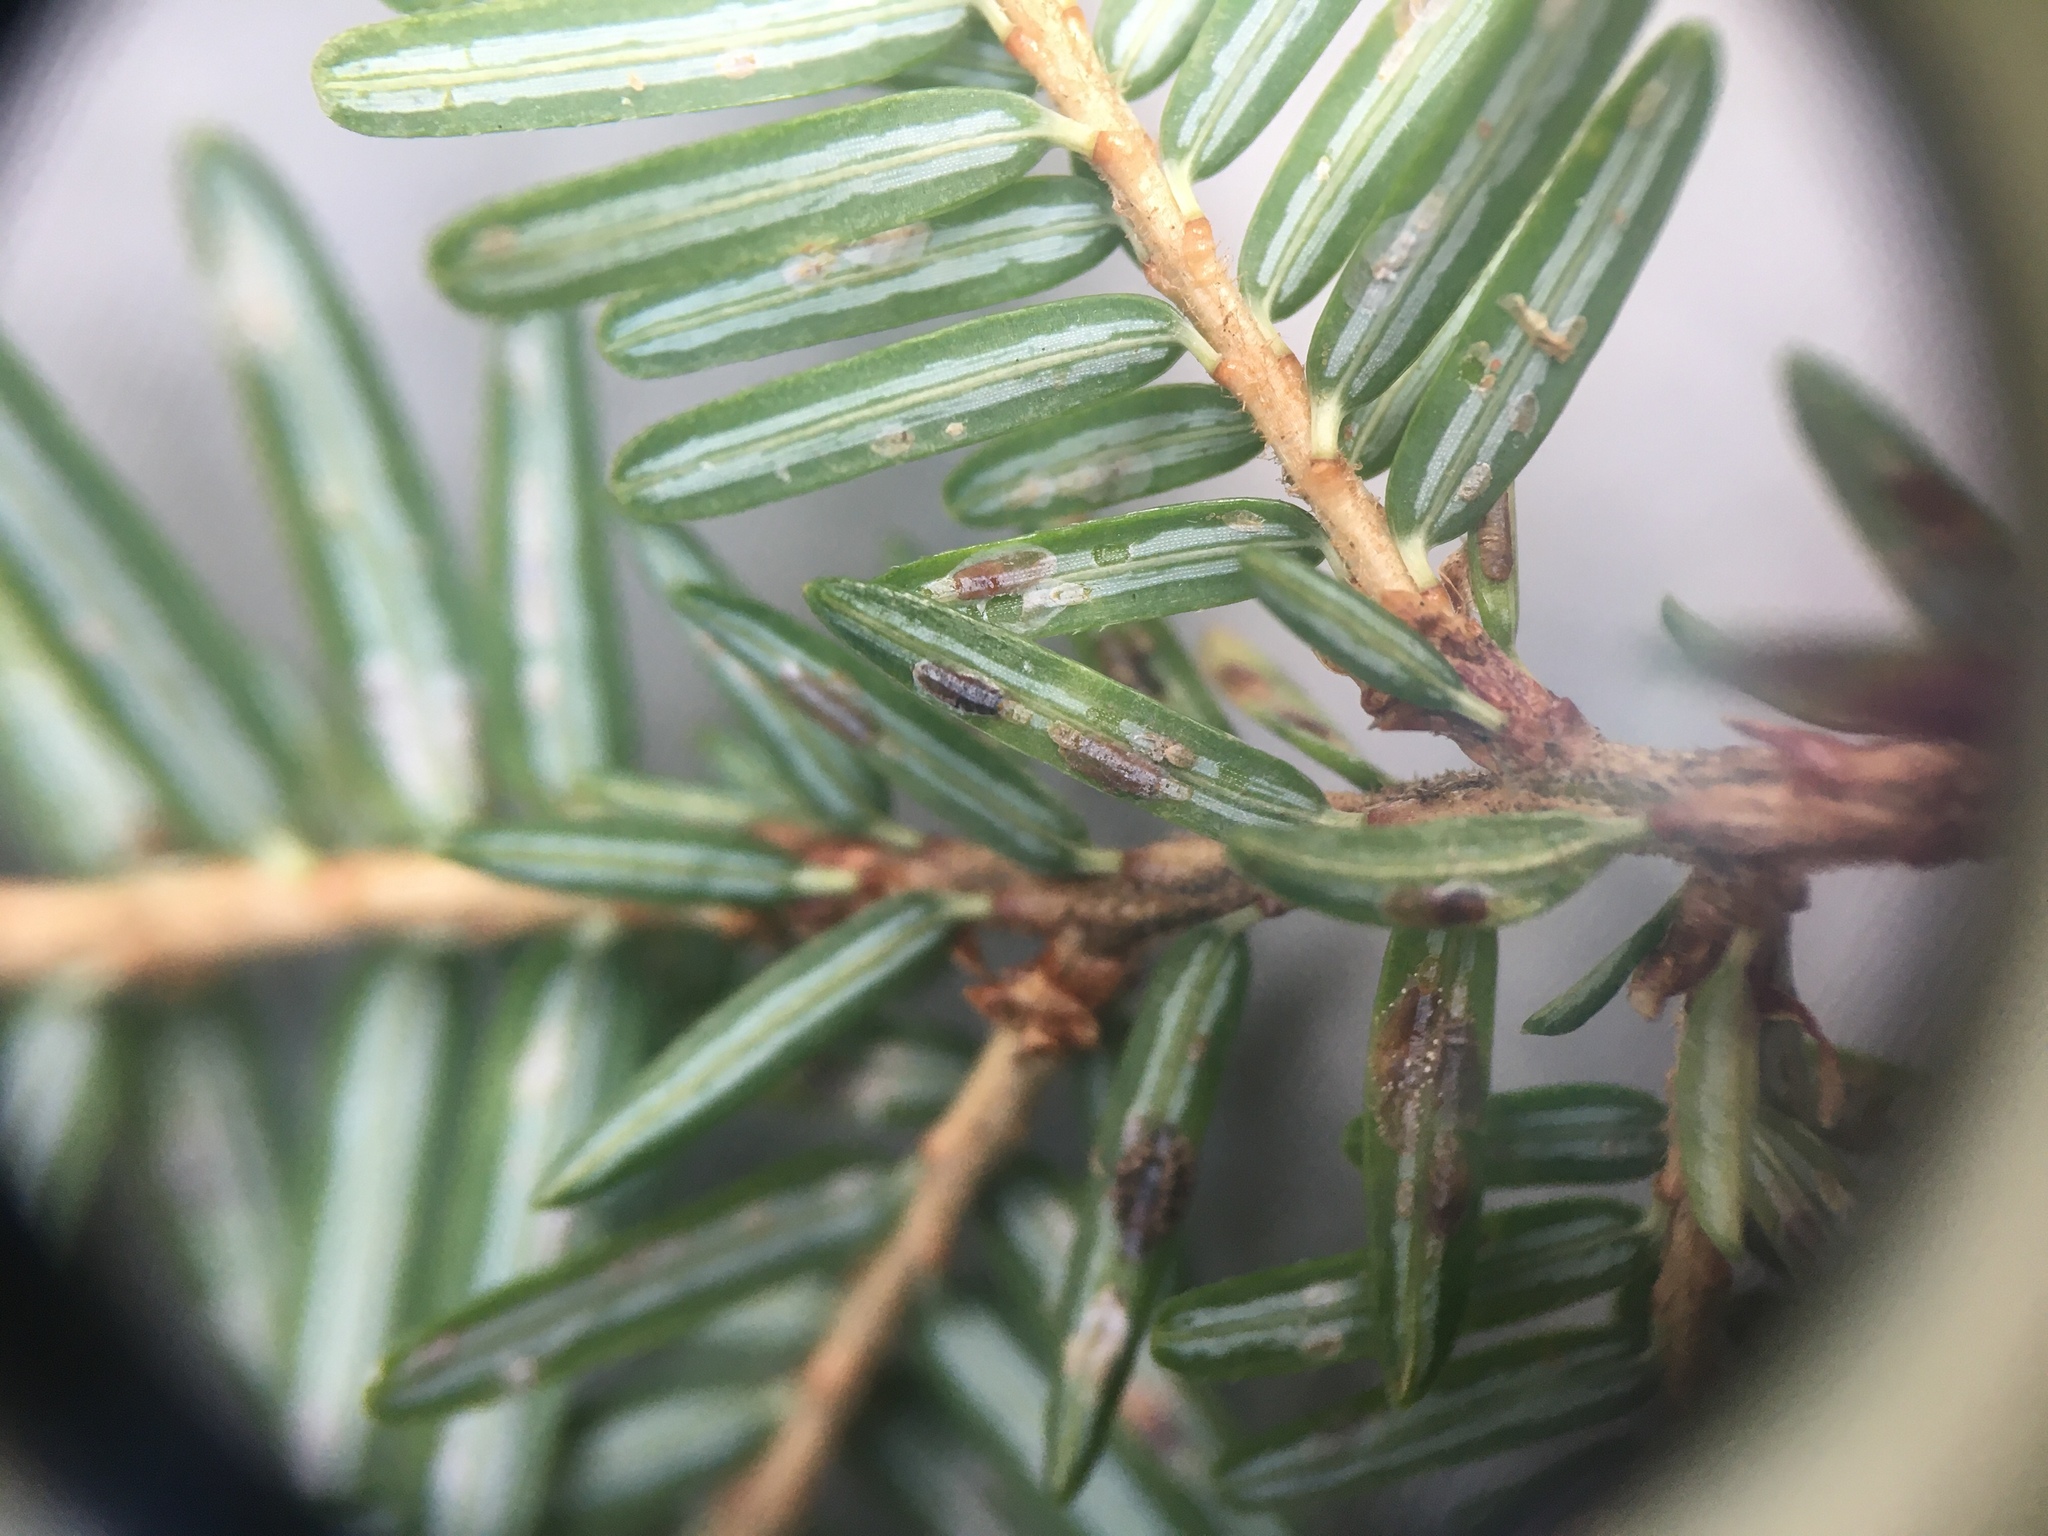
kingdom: Animalia
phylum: Arthropoda
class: Insecta
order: Hemiptera
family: Diaspididae
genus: Fiorinia
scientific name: Fiorinia externa
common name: Elongate hemlock scale
